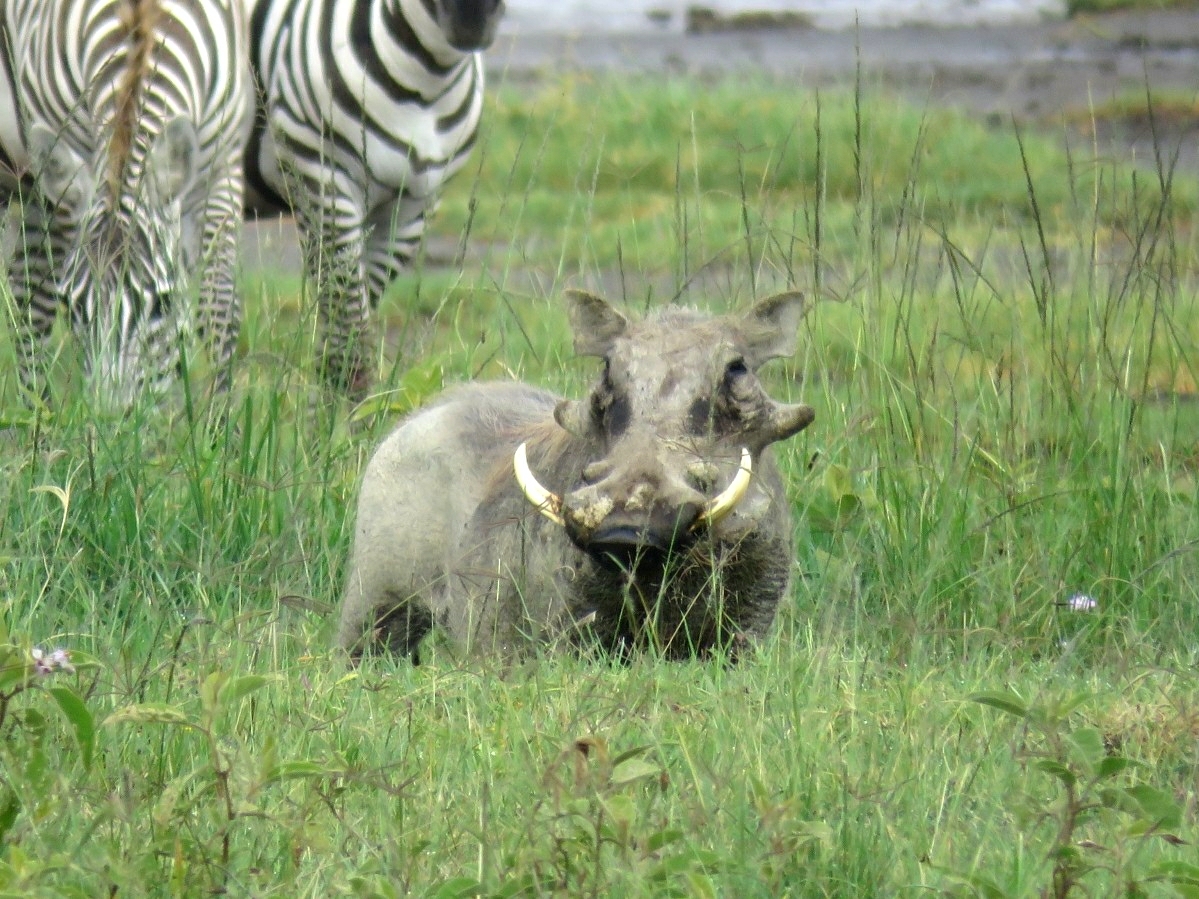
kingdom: Animalia
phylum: Chordata
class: Mammalia
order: Artiodactyla
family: Suidae
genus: Phacochoerus
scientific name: Phacochoerus africanus
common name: Common warthog
